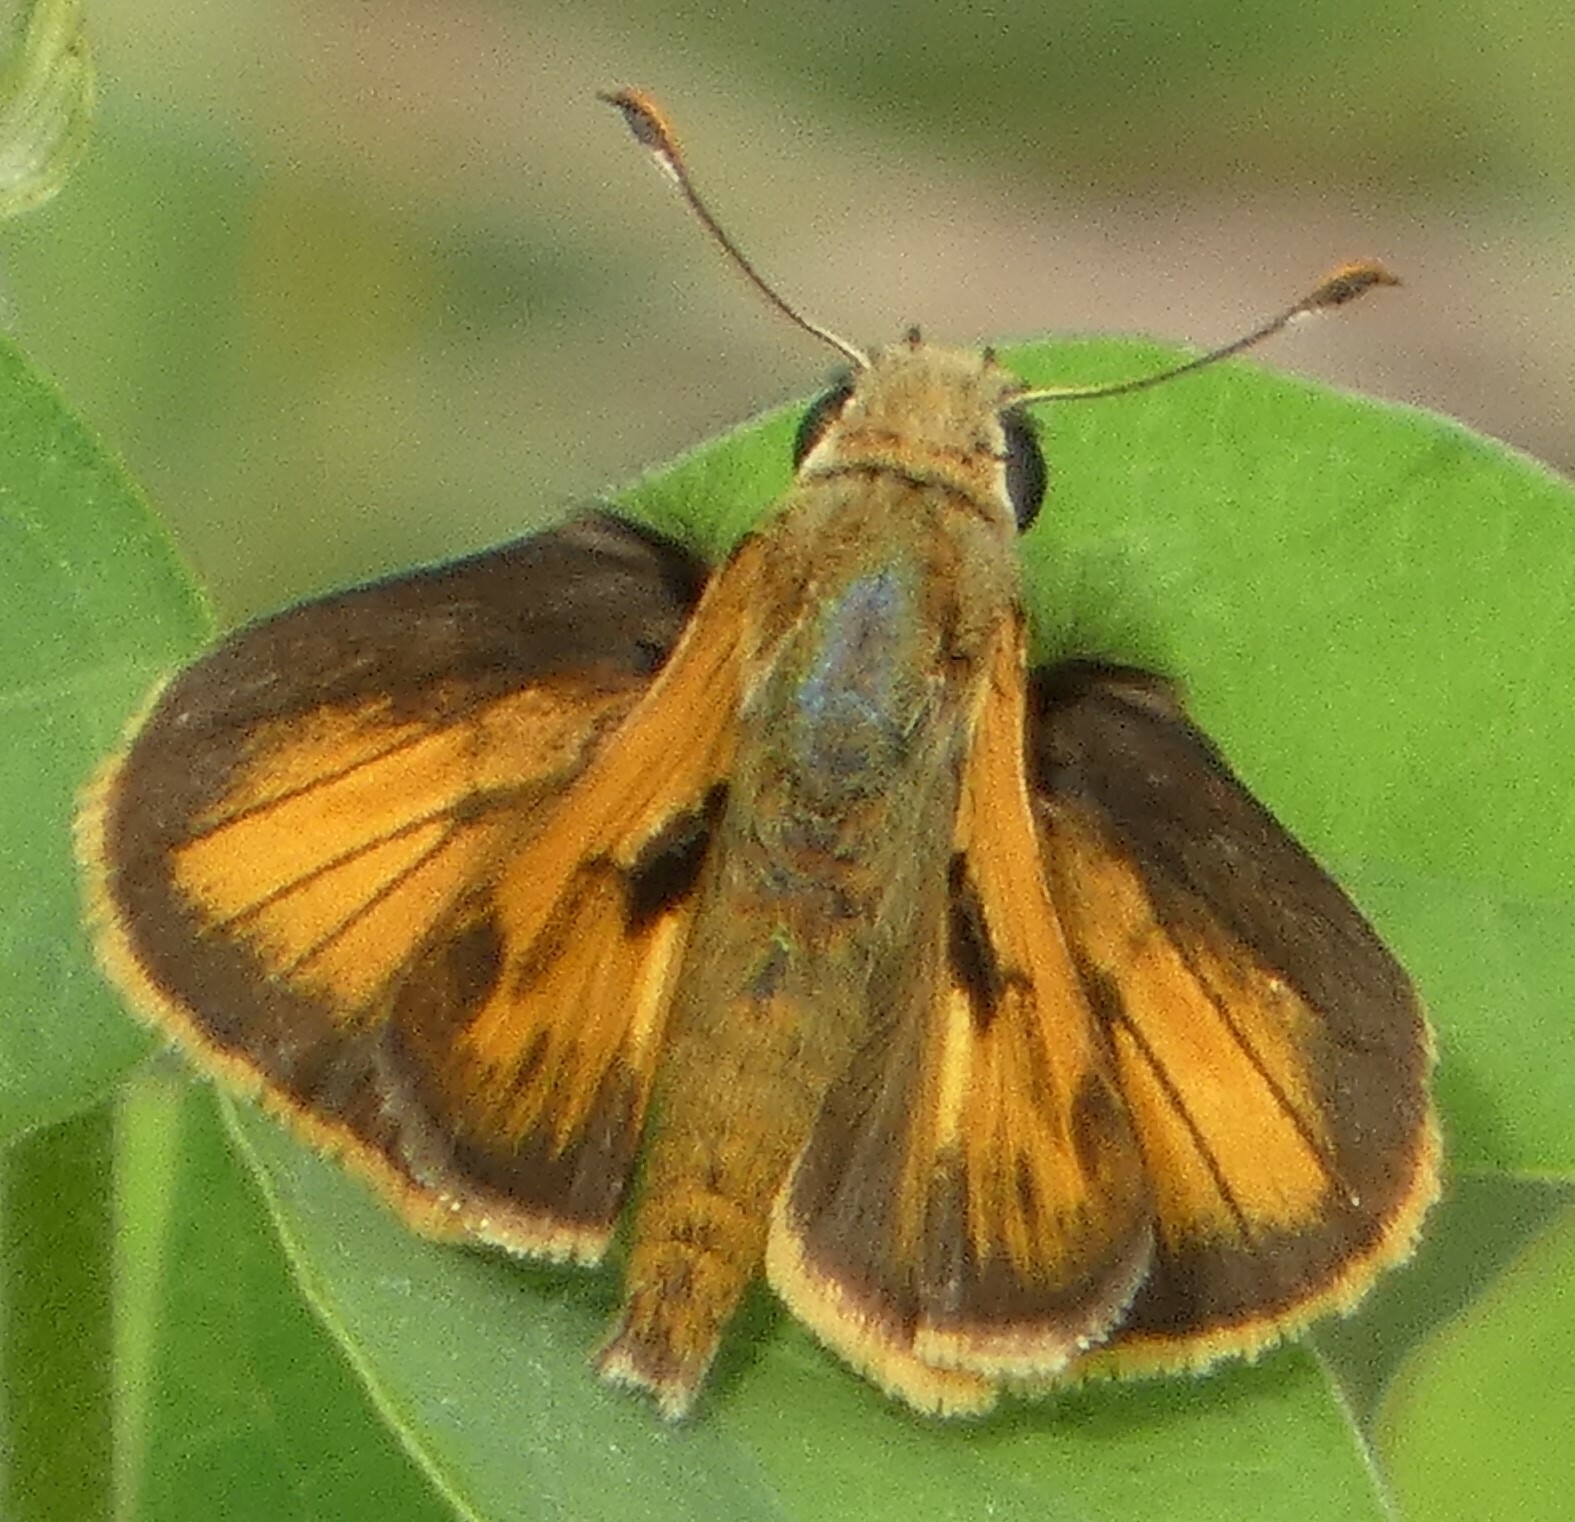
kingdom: Animalia
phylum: Arthropoda
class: Insecta
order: Lepidoptera
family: Hesperiidae
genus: Polites
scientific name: Polites vibex
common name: Whirlabout
